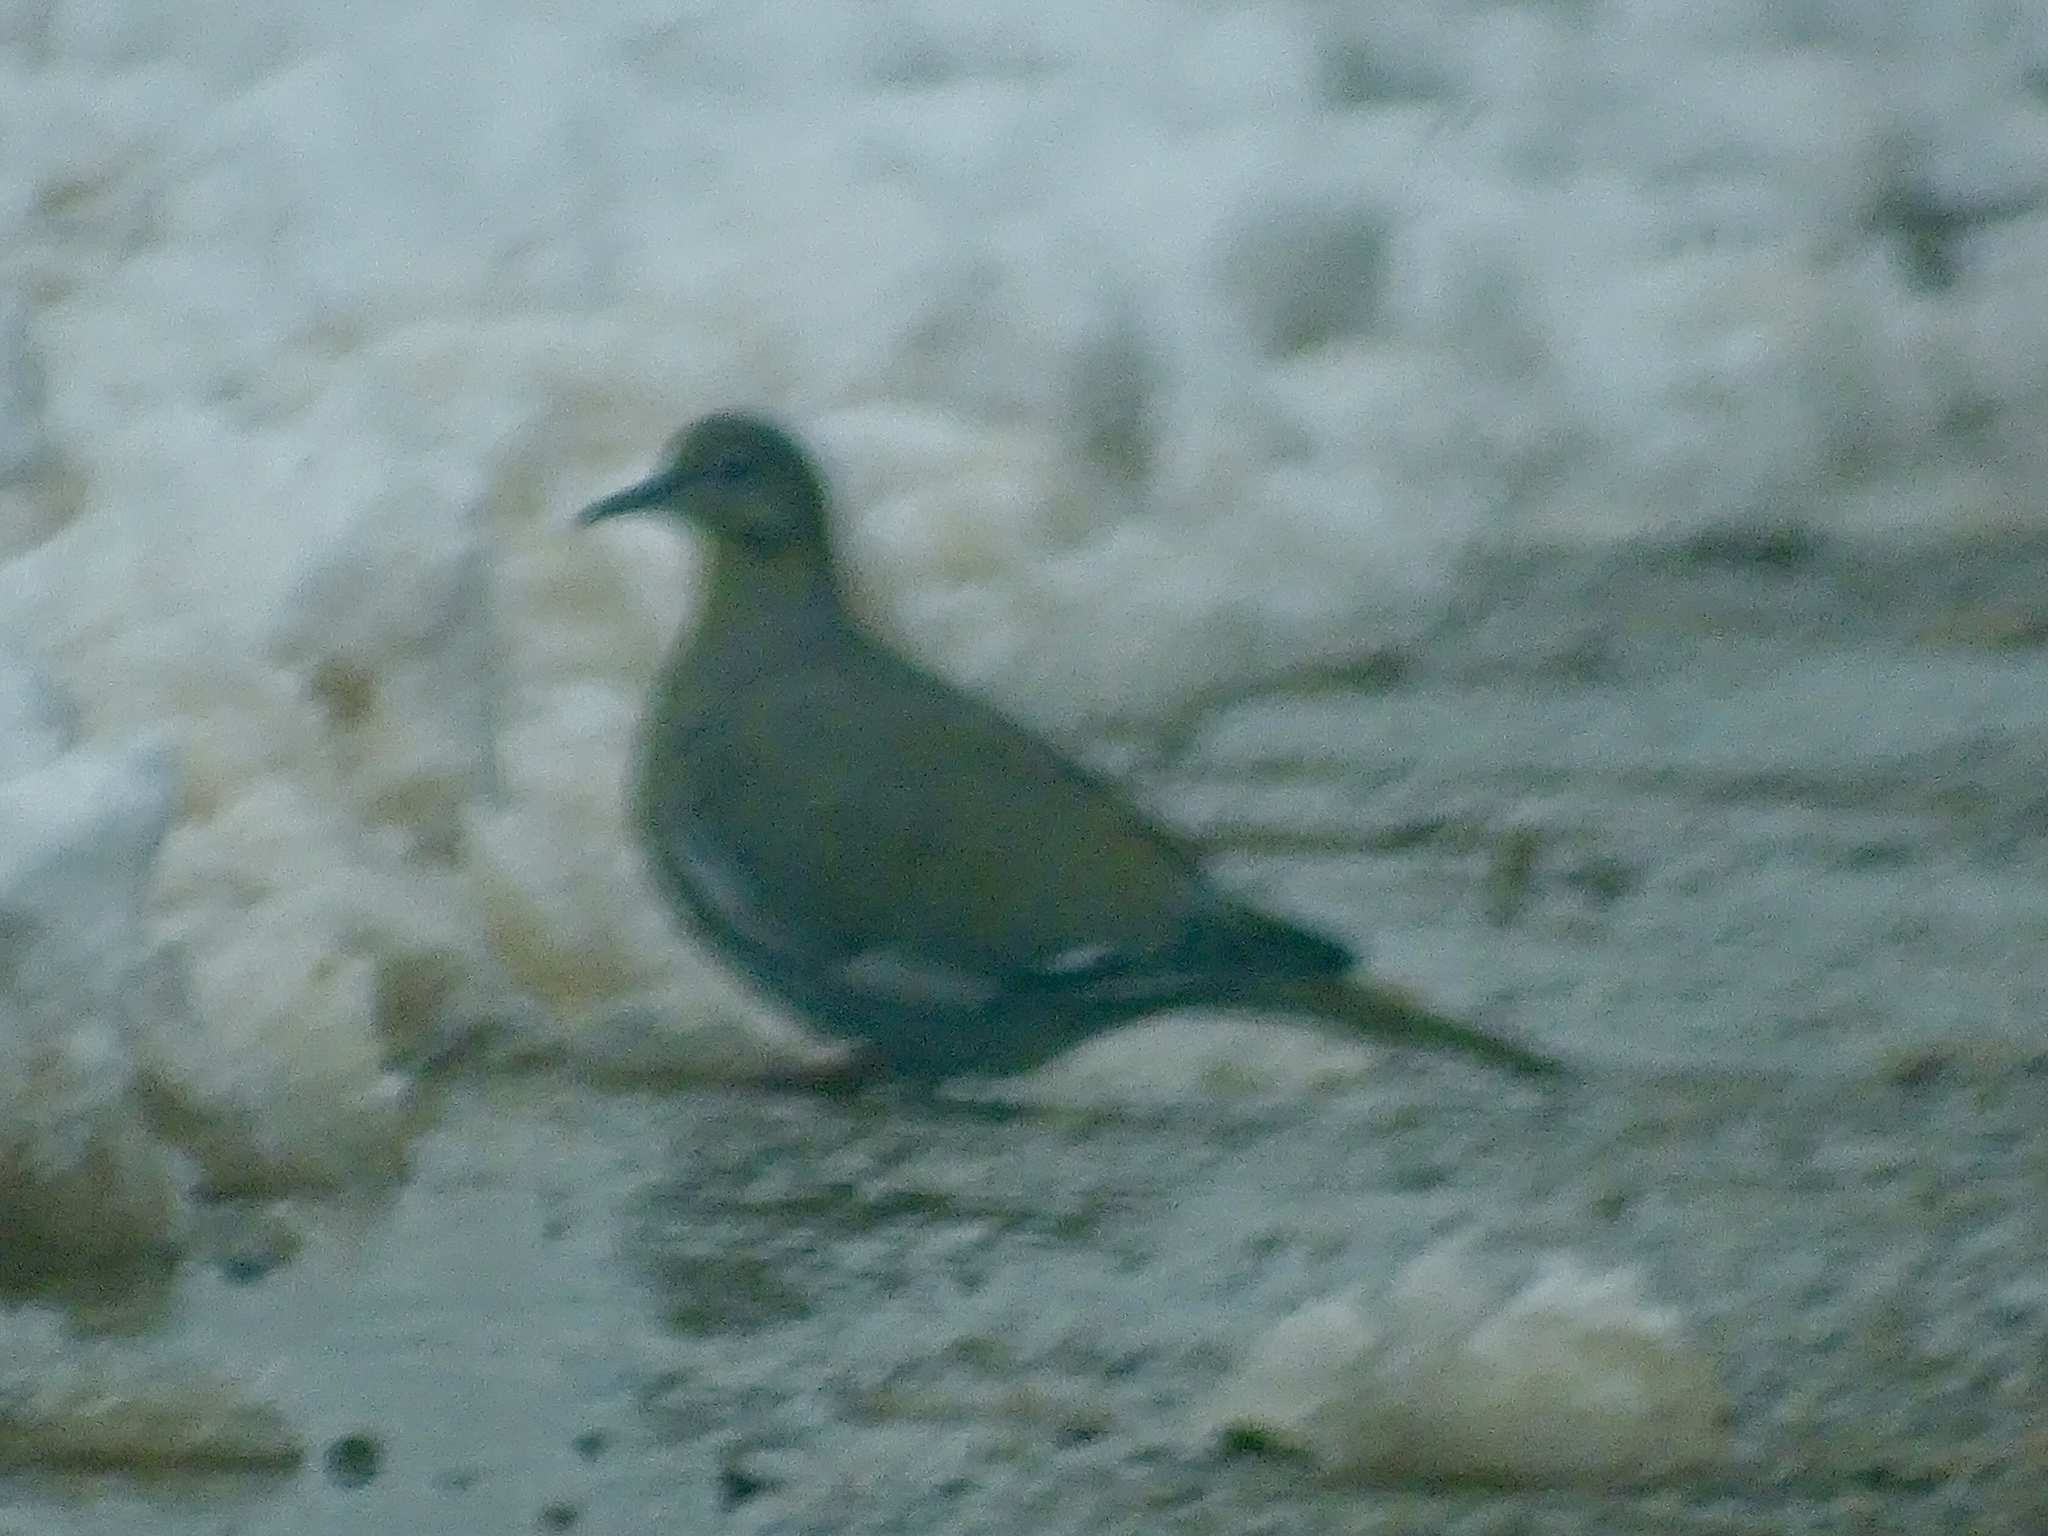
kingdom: Animalia
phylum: Chordata
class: Aves
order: Columbiformes
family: Columbidae
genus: Zenaida
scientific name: Zenaida asiatica
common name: White-winged dove
